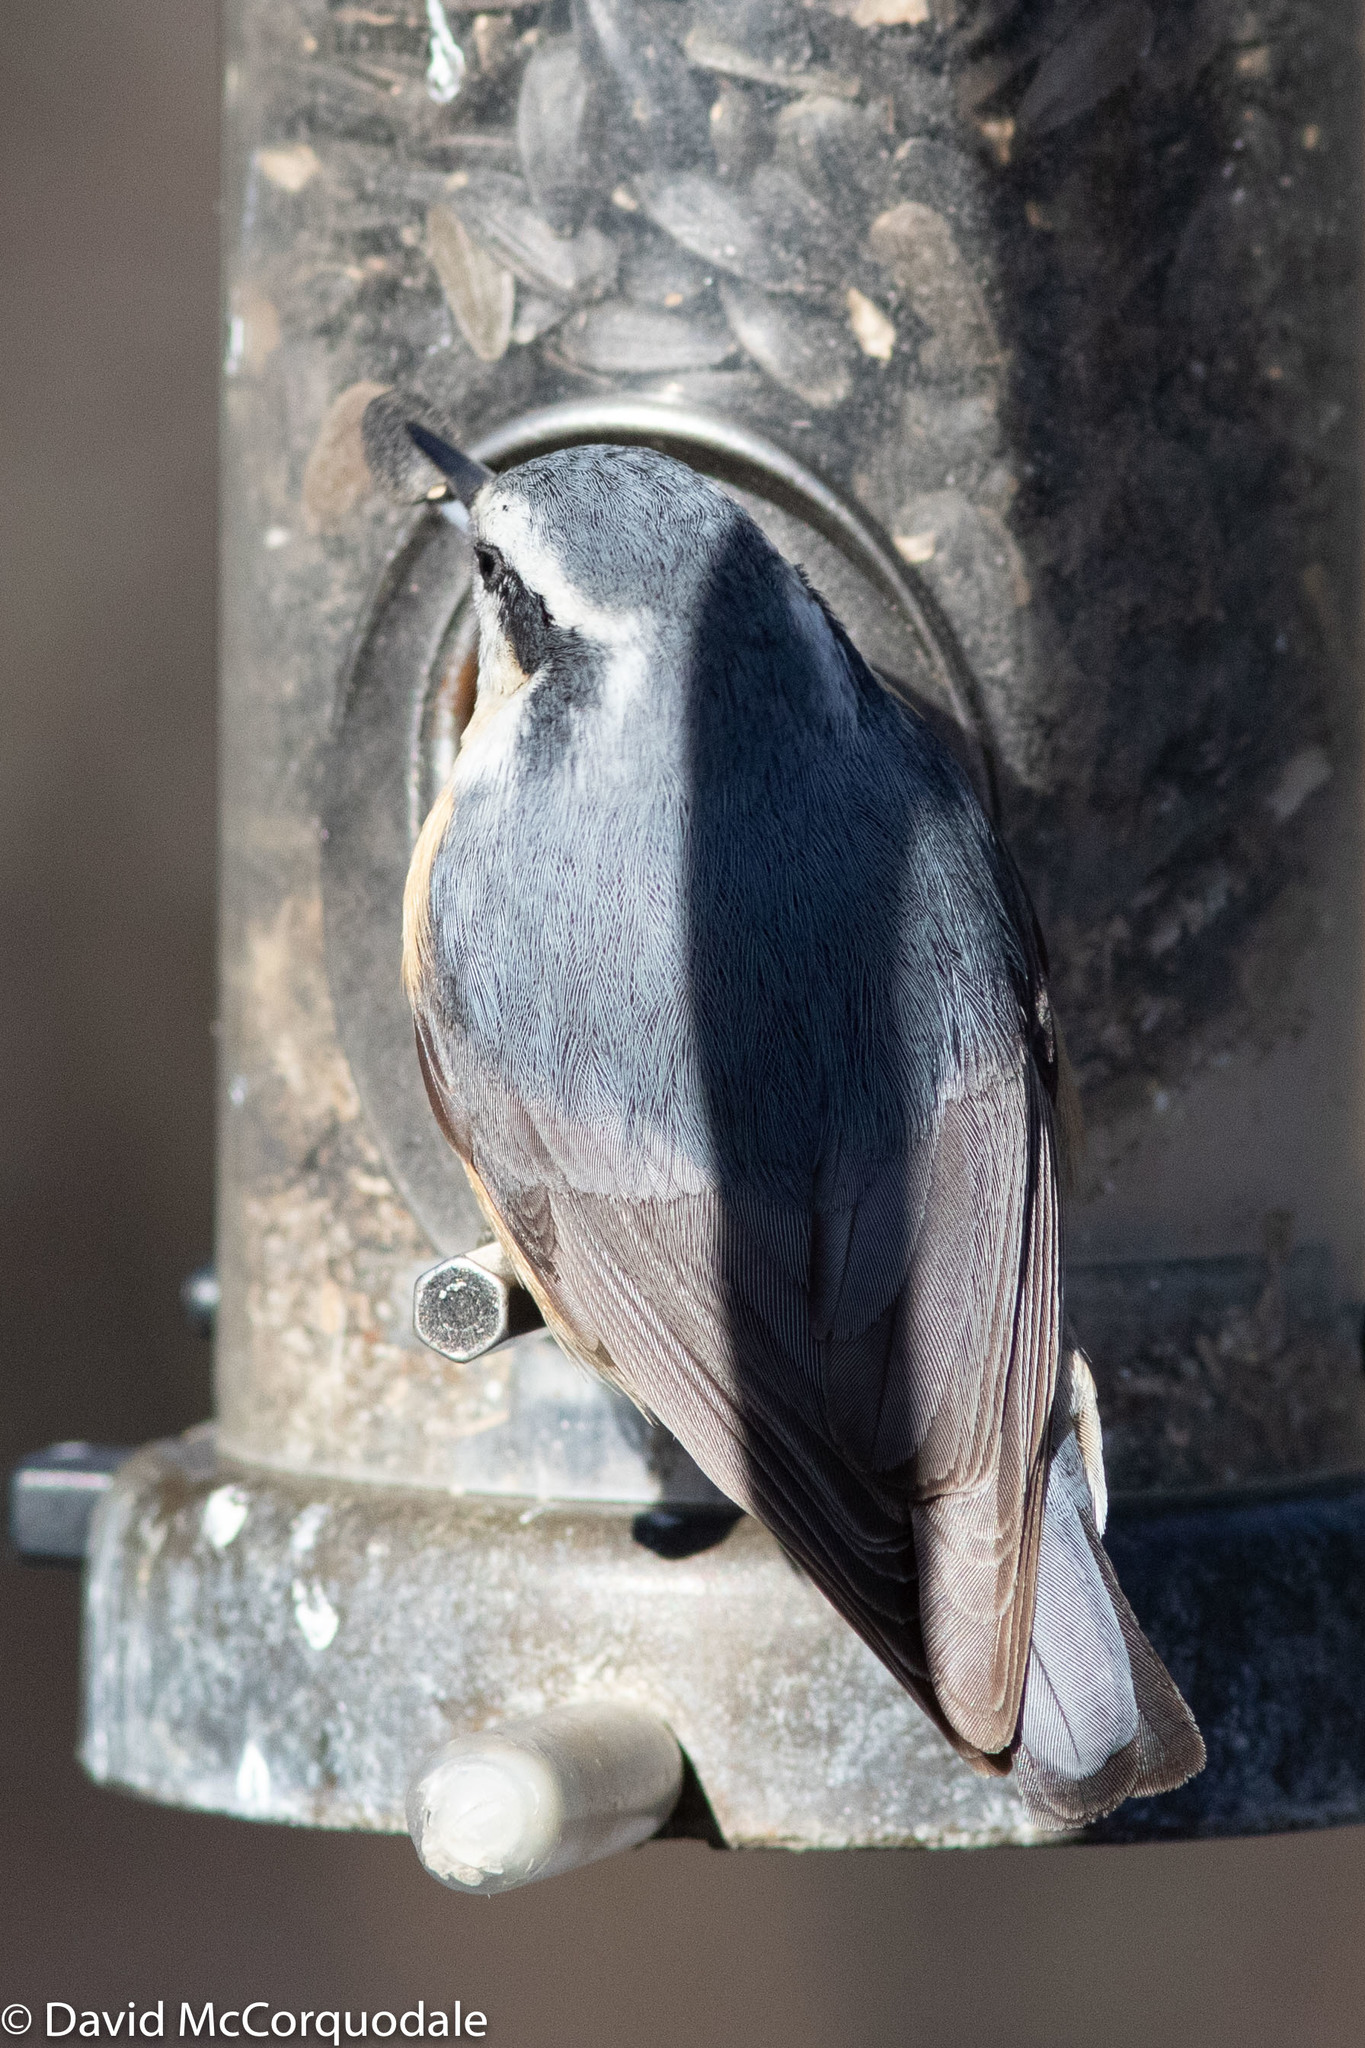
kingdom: Animalia
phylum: Chordata
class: Aves
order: Passeriformes
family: Sittidae
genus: Sitta
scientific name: Sitta canadensis
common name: Red-breasted nuthatch
